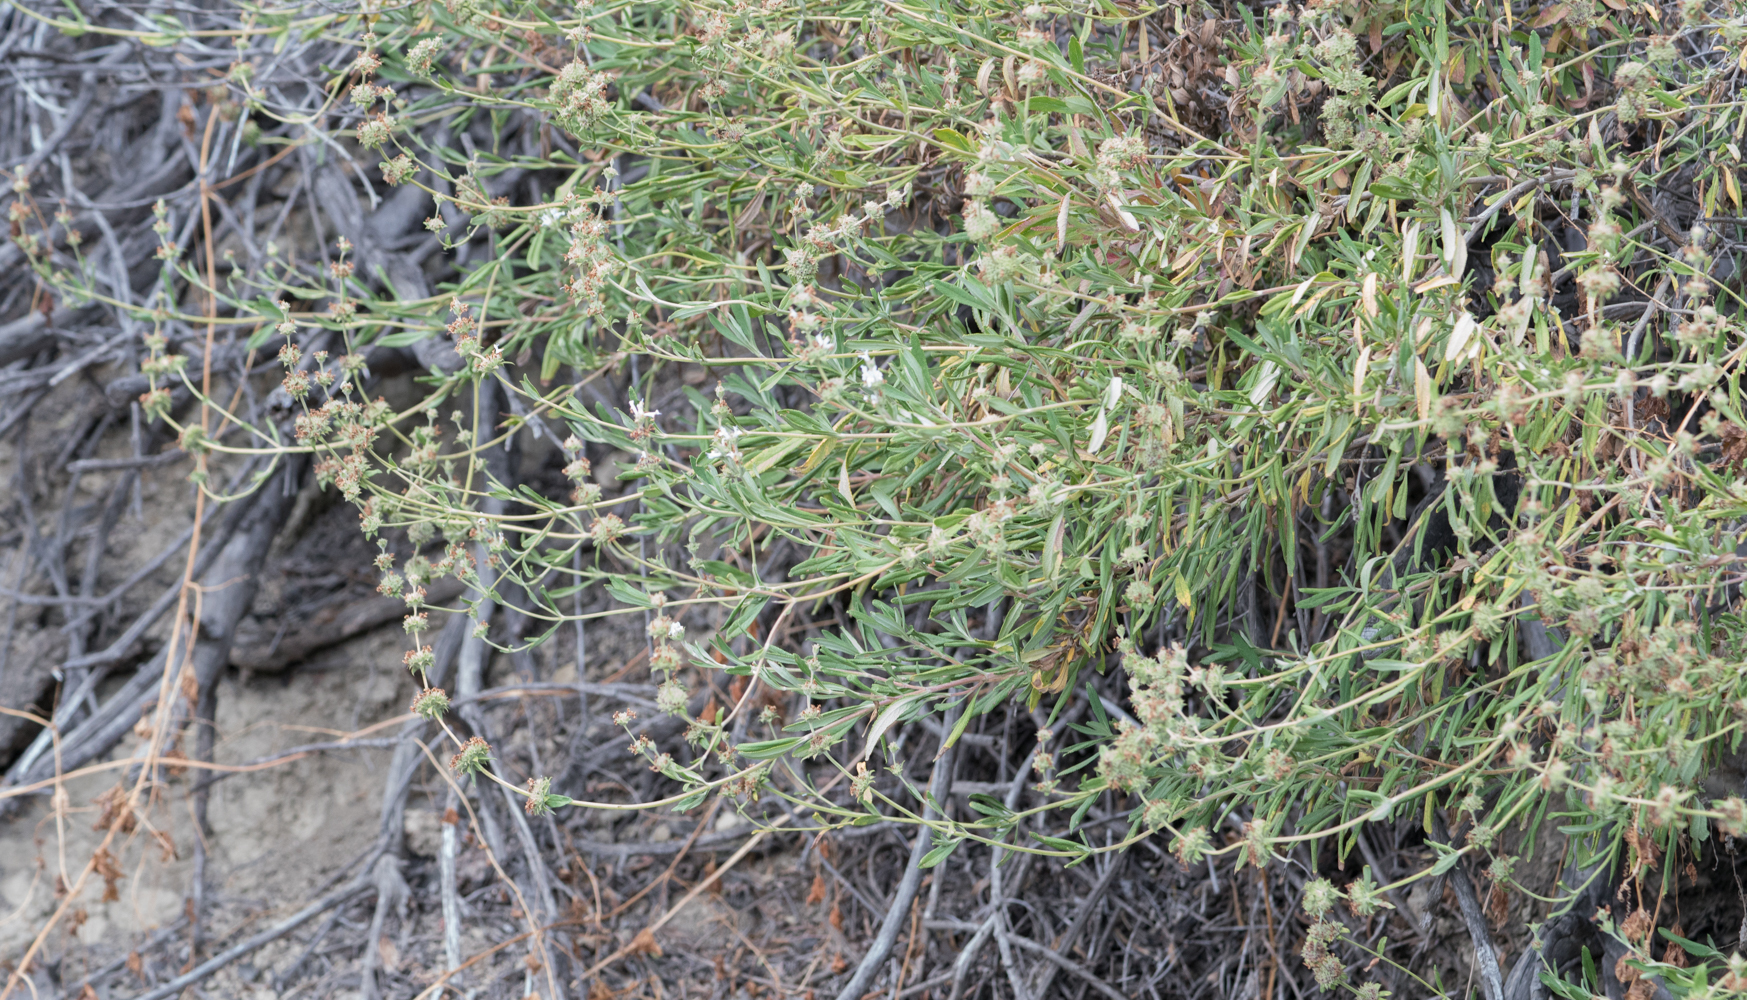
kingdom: Plantae
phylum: Tracheophyta
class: Magnoliopsida
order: Lamiales
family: Lamiaceae
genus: Salvia
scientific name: Salvia mellifera
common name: Black sage
